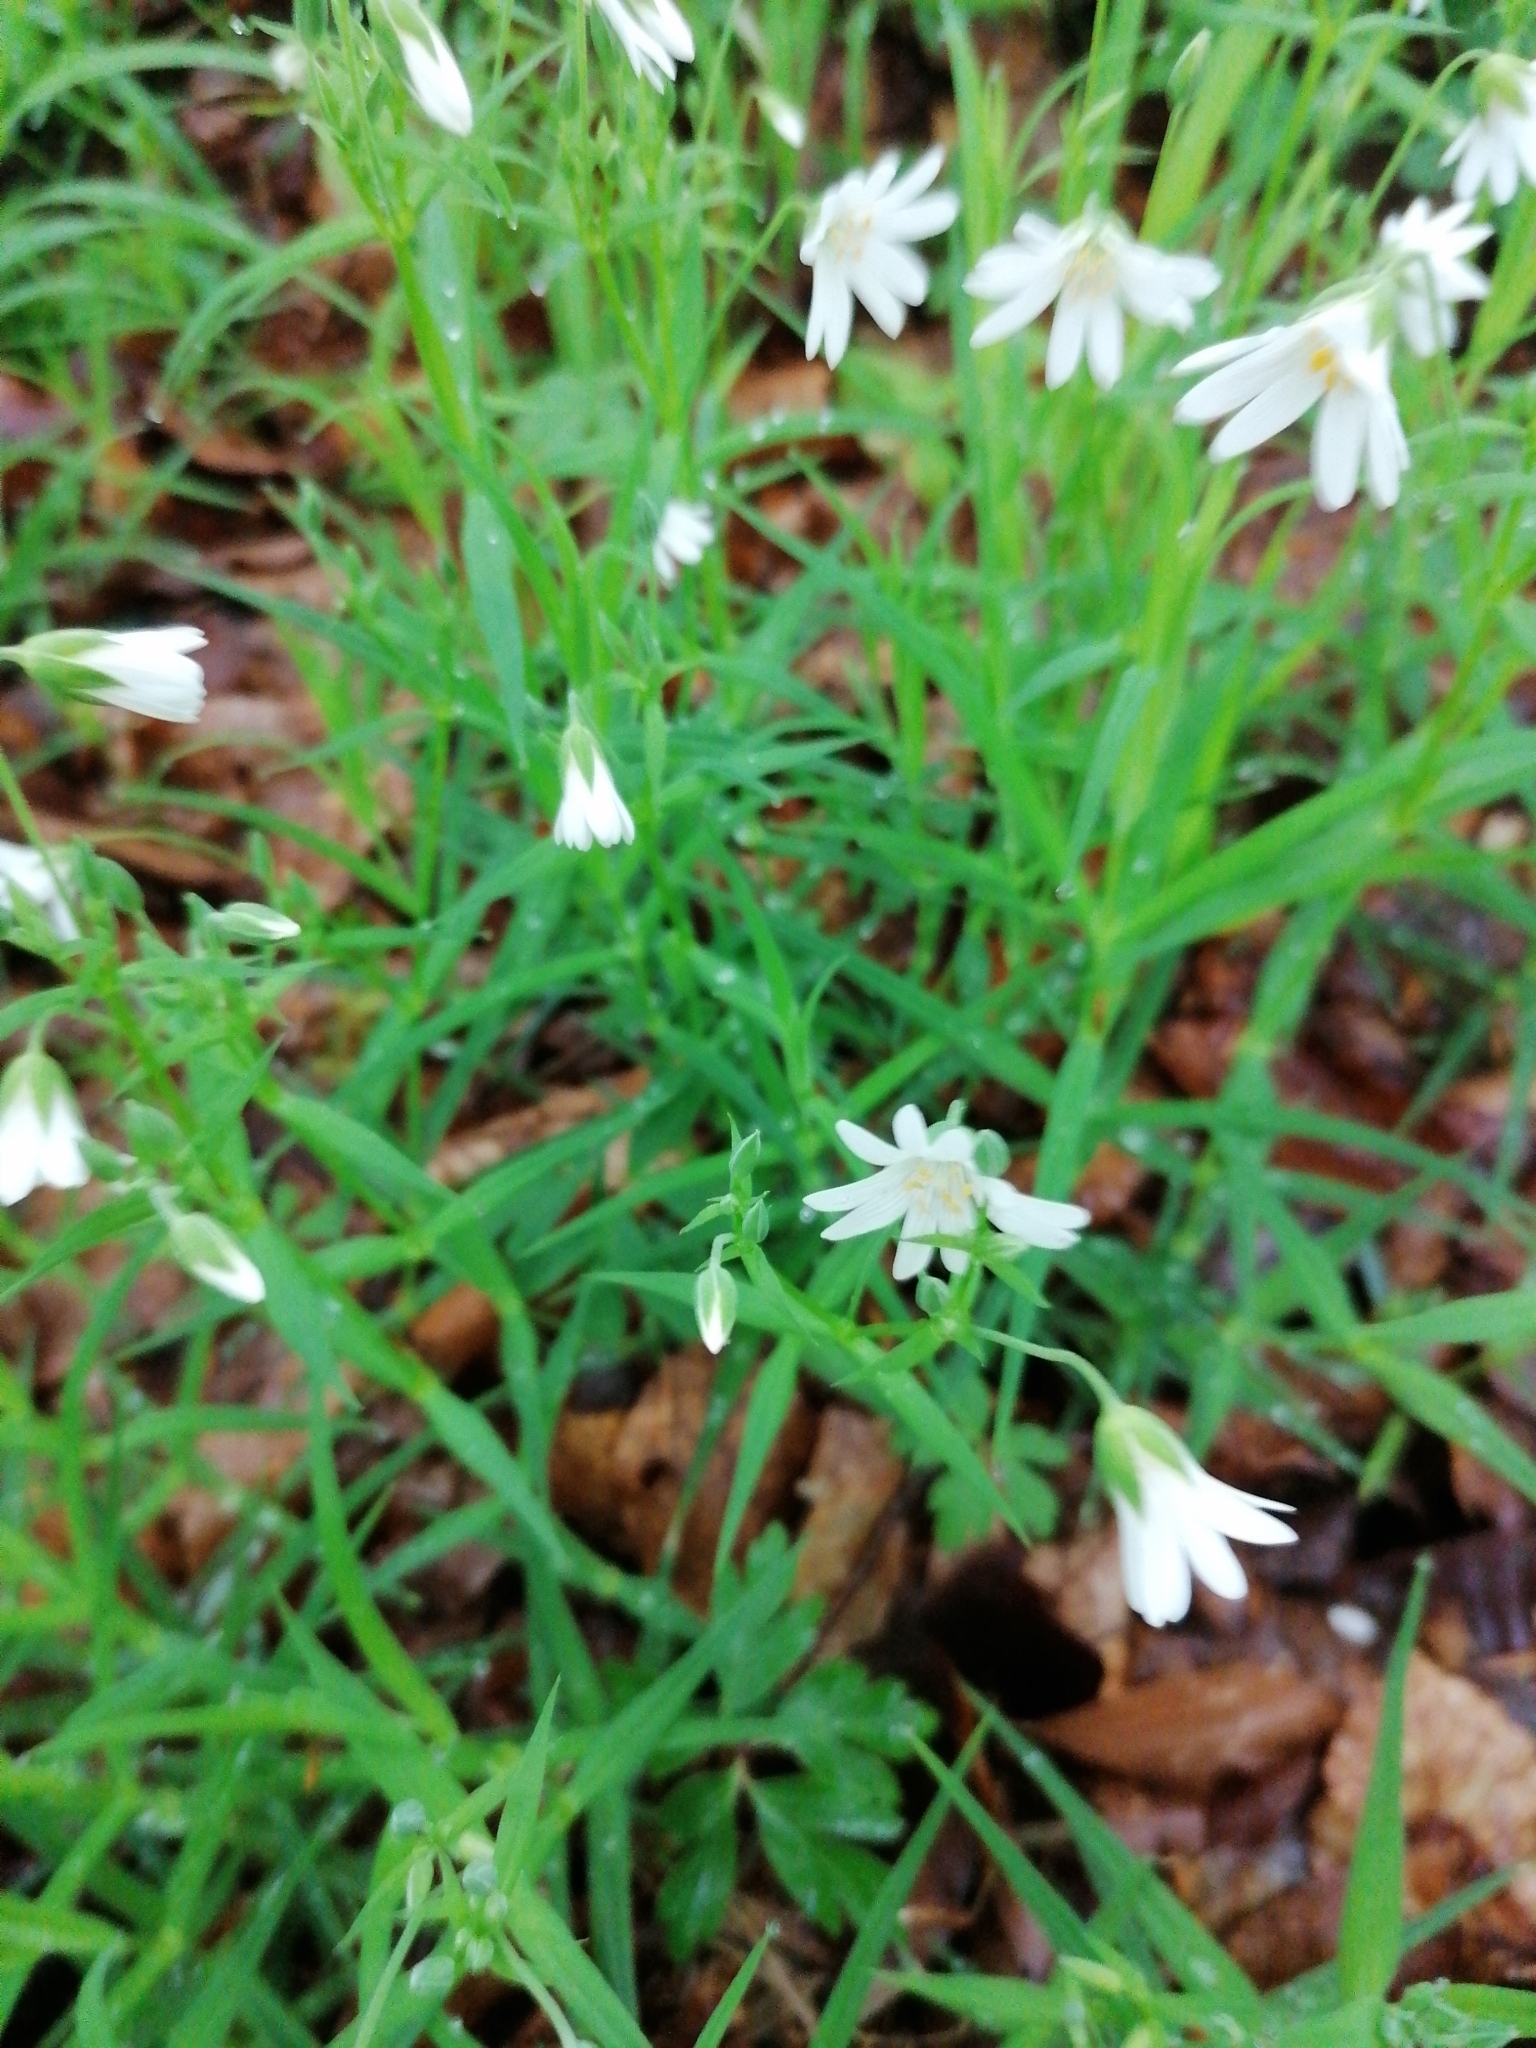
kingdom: Plantae
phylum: Tracheophyta
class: Magnoliopsida
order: Caryophyllales
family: Caryophyllaceae
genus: Rabelera
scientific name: Rabelera holostea
